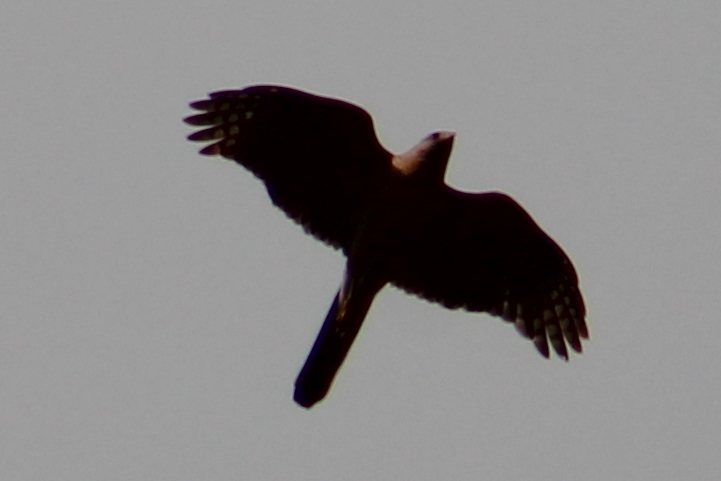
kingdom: Animalia
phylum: Chordata
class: Aves
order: Accipitriformes
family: Accipitridae
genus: Accipiter
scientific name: Accipiter cooperii
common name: Cooper's hawk
